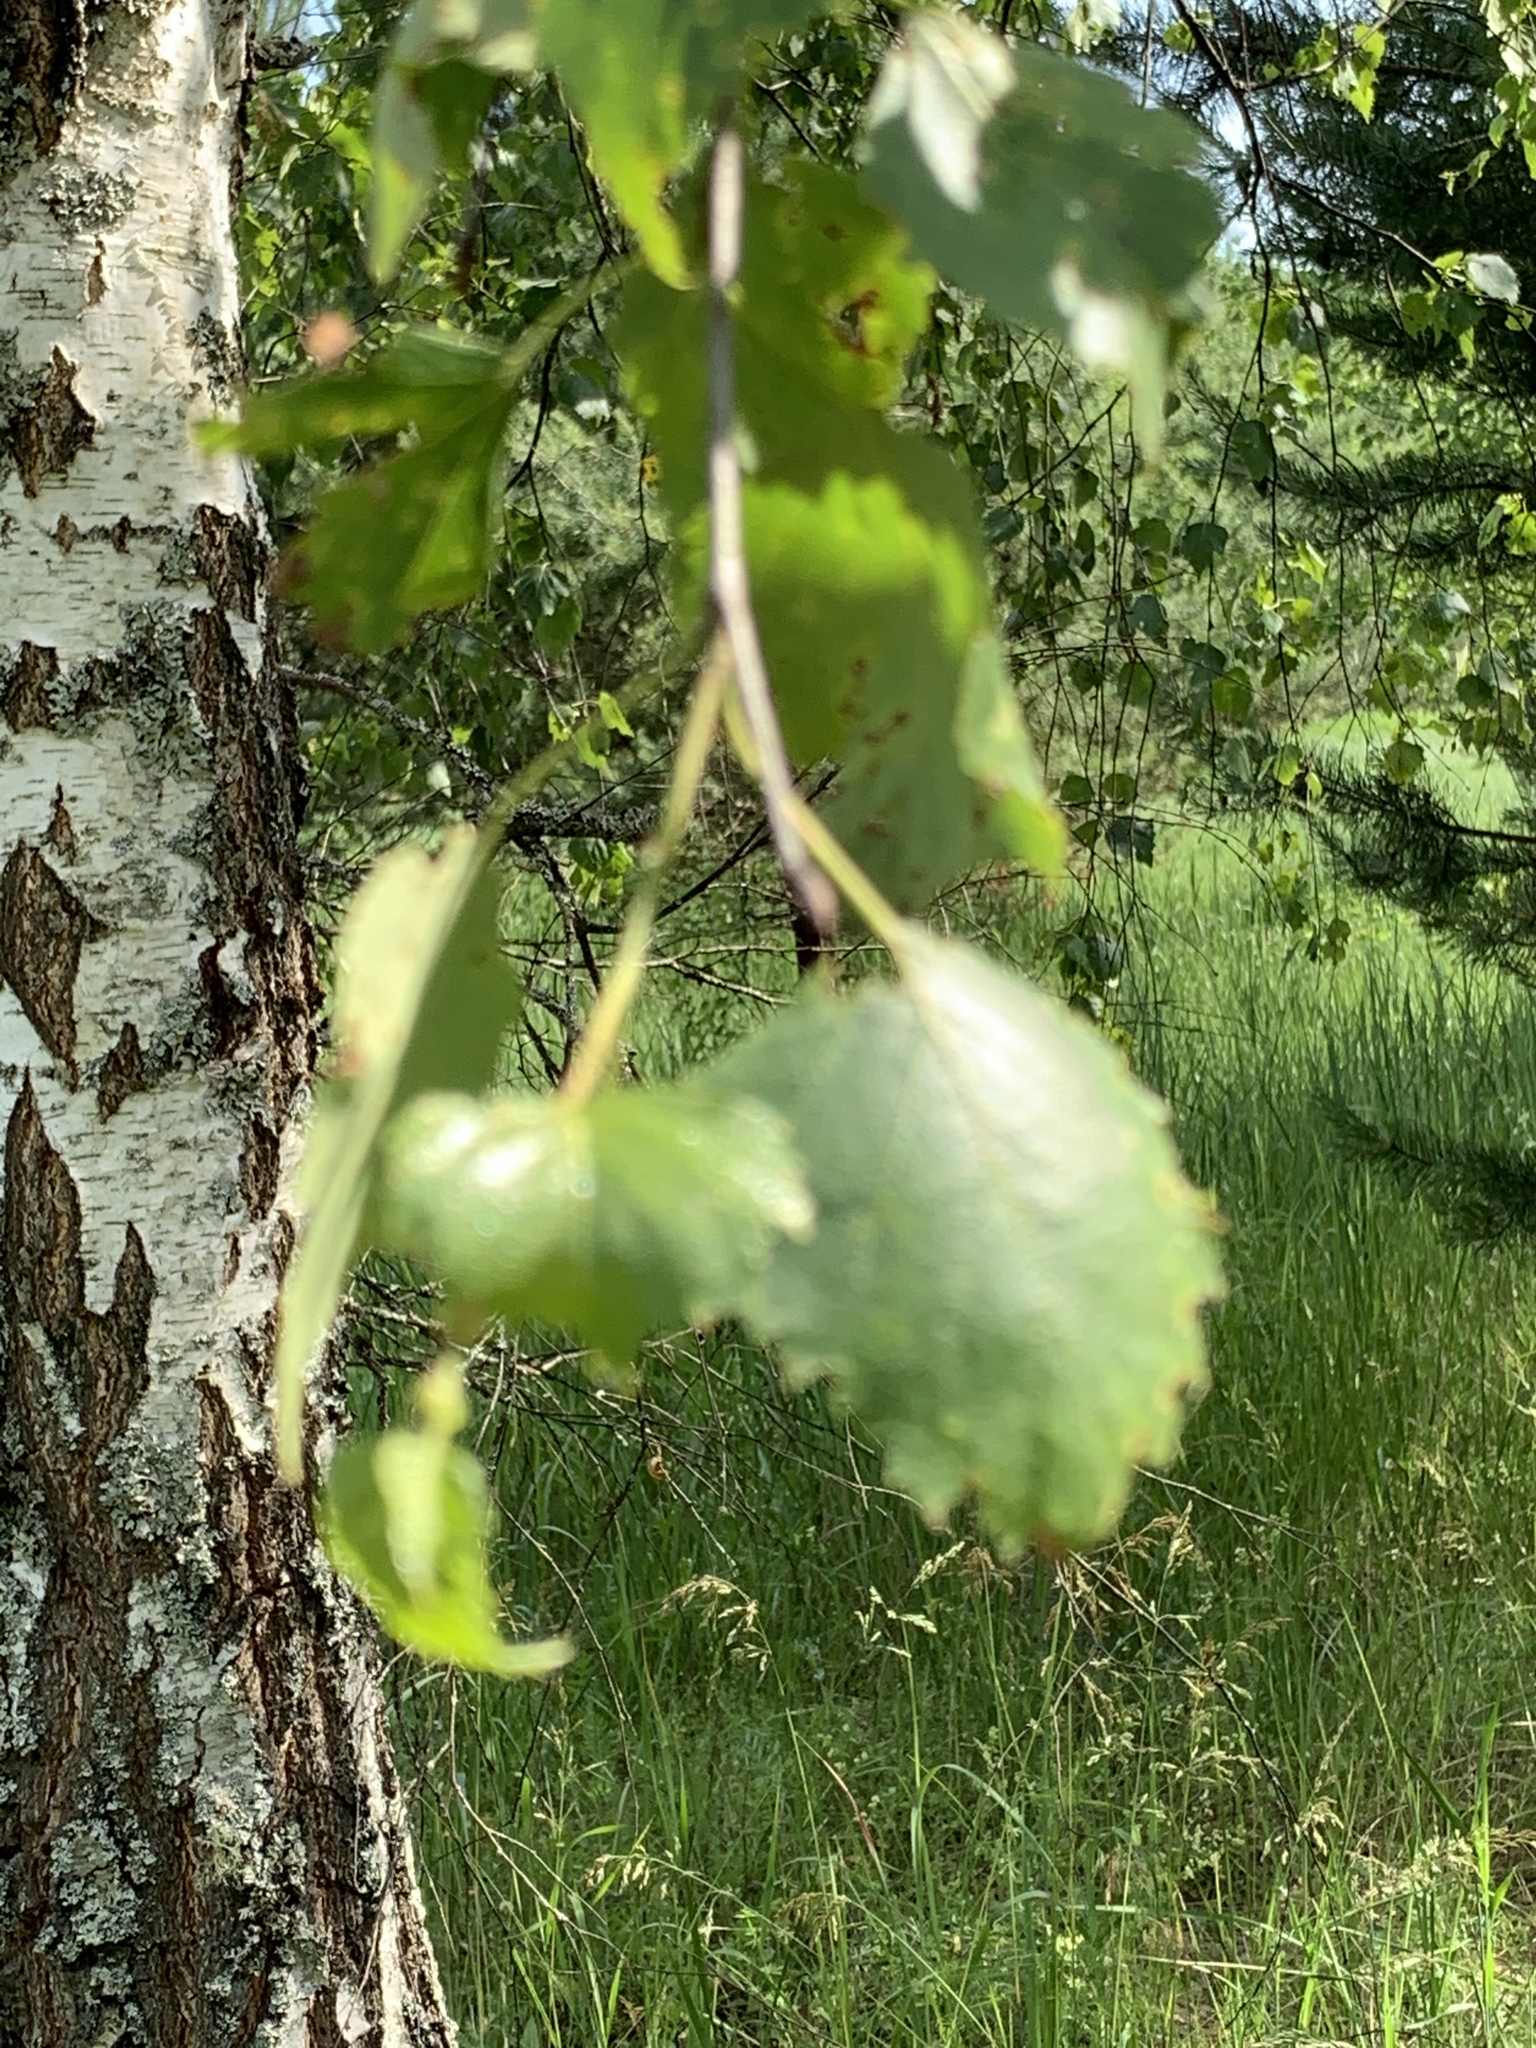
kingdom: Plantae
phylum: Tracheophyta
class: Magnoliopsida
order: Fagales
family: Betulaceae
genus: Betula
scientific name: Betula pendula
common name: Silver birch
